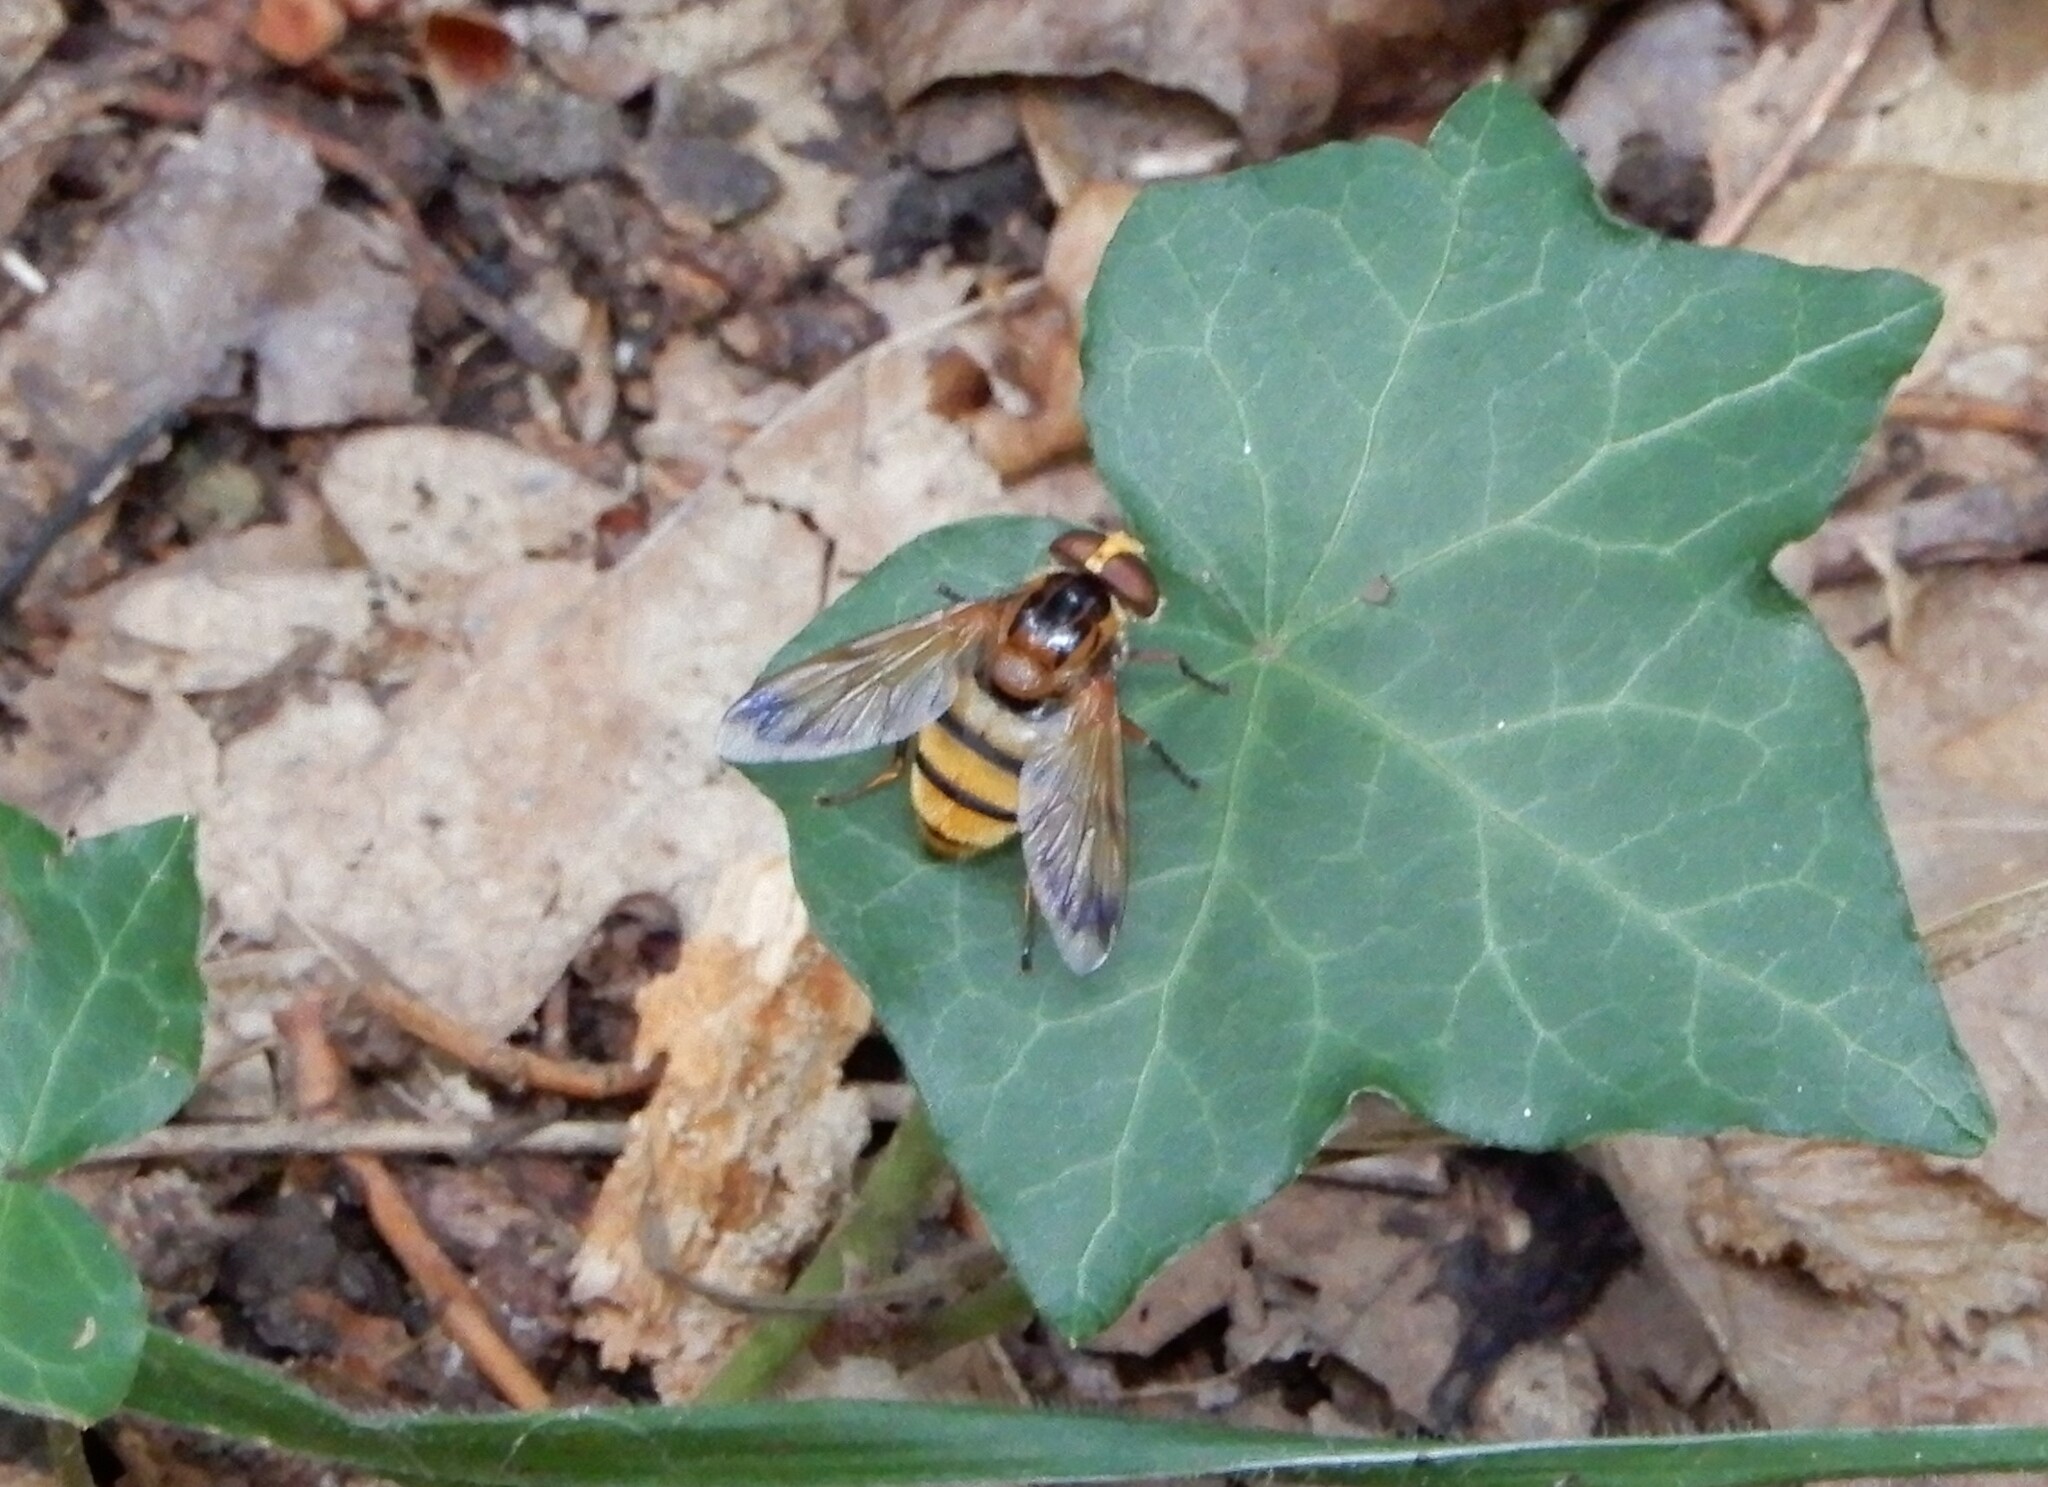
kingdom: Animalia
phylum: Arthropoda
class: Insecta
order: Diptera
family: Syrphidae
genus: Volucella
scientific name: Volucella inanis
